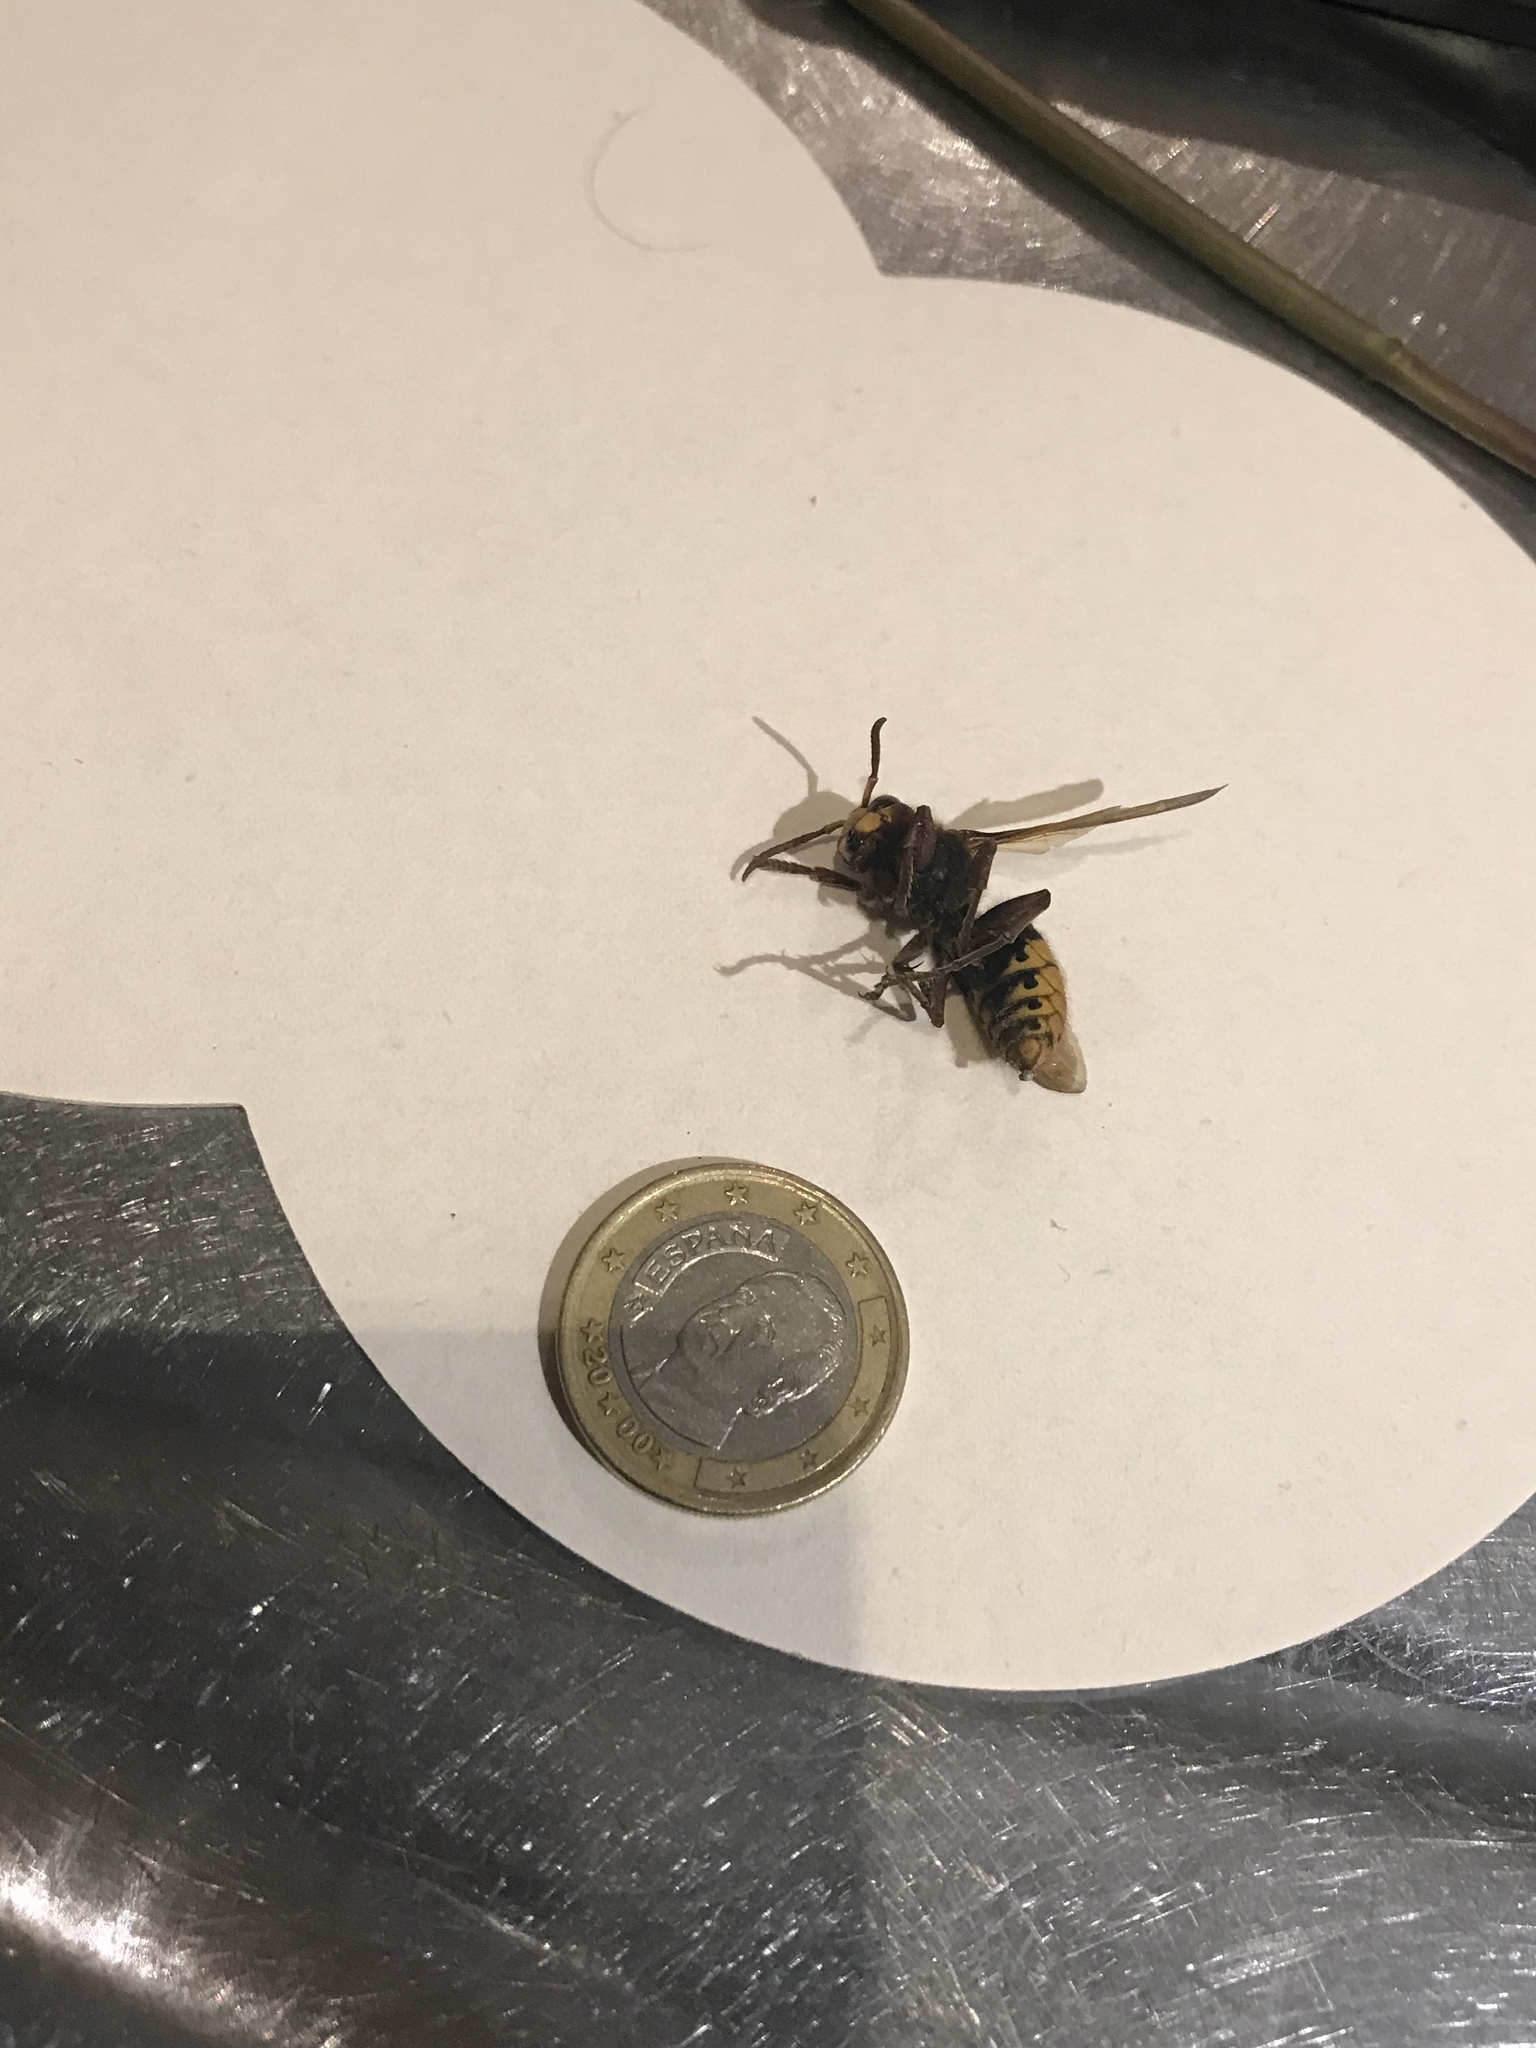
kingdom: Animalia
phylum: Arthropoda
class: Insecta
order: Hymenoptera
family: Vespidae
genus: Vespa
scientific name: Vespa crabro
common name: Hornet
